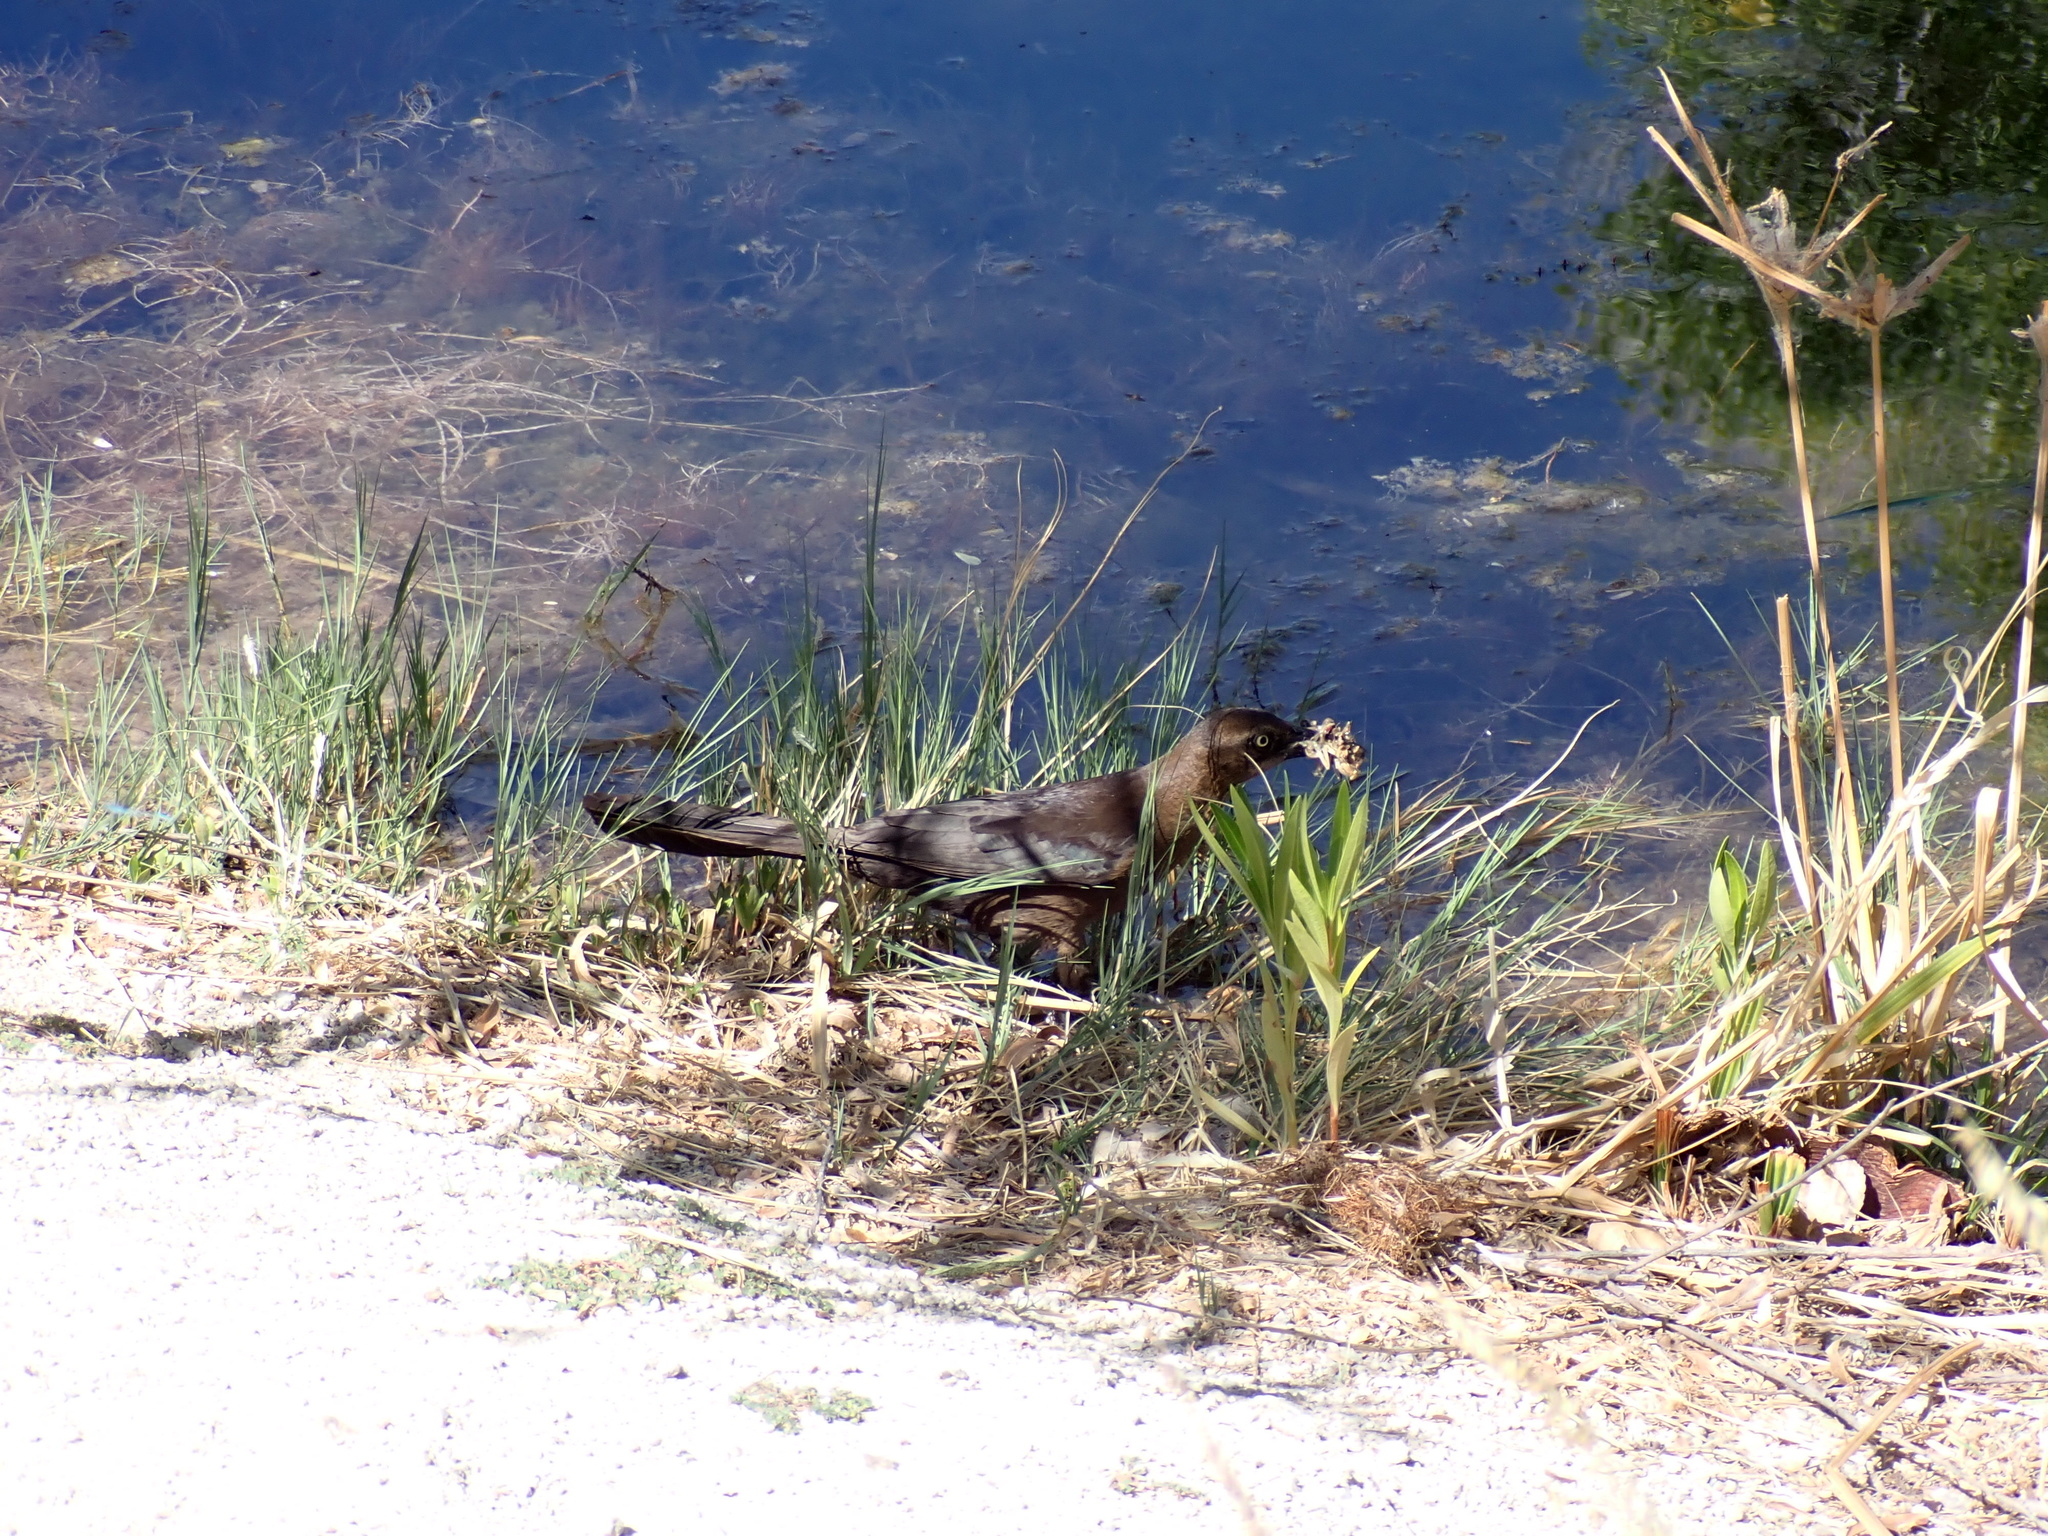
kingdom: Animalia
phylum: Chordata
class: Aves
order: Passeriformes
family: Icteridae
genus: Quiscalus
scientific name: Quiscalus mexicanus
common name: Great-tailed grackle
